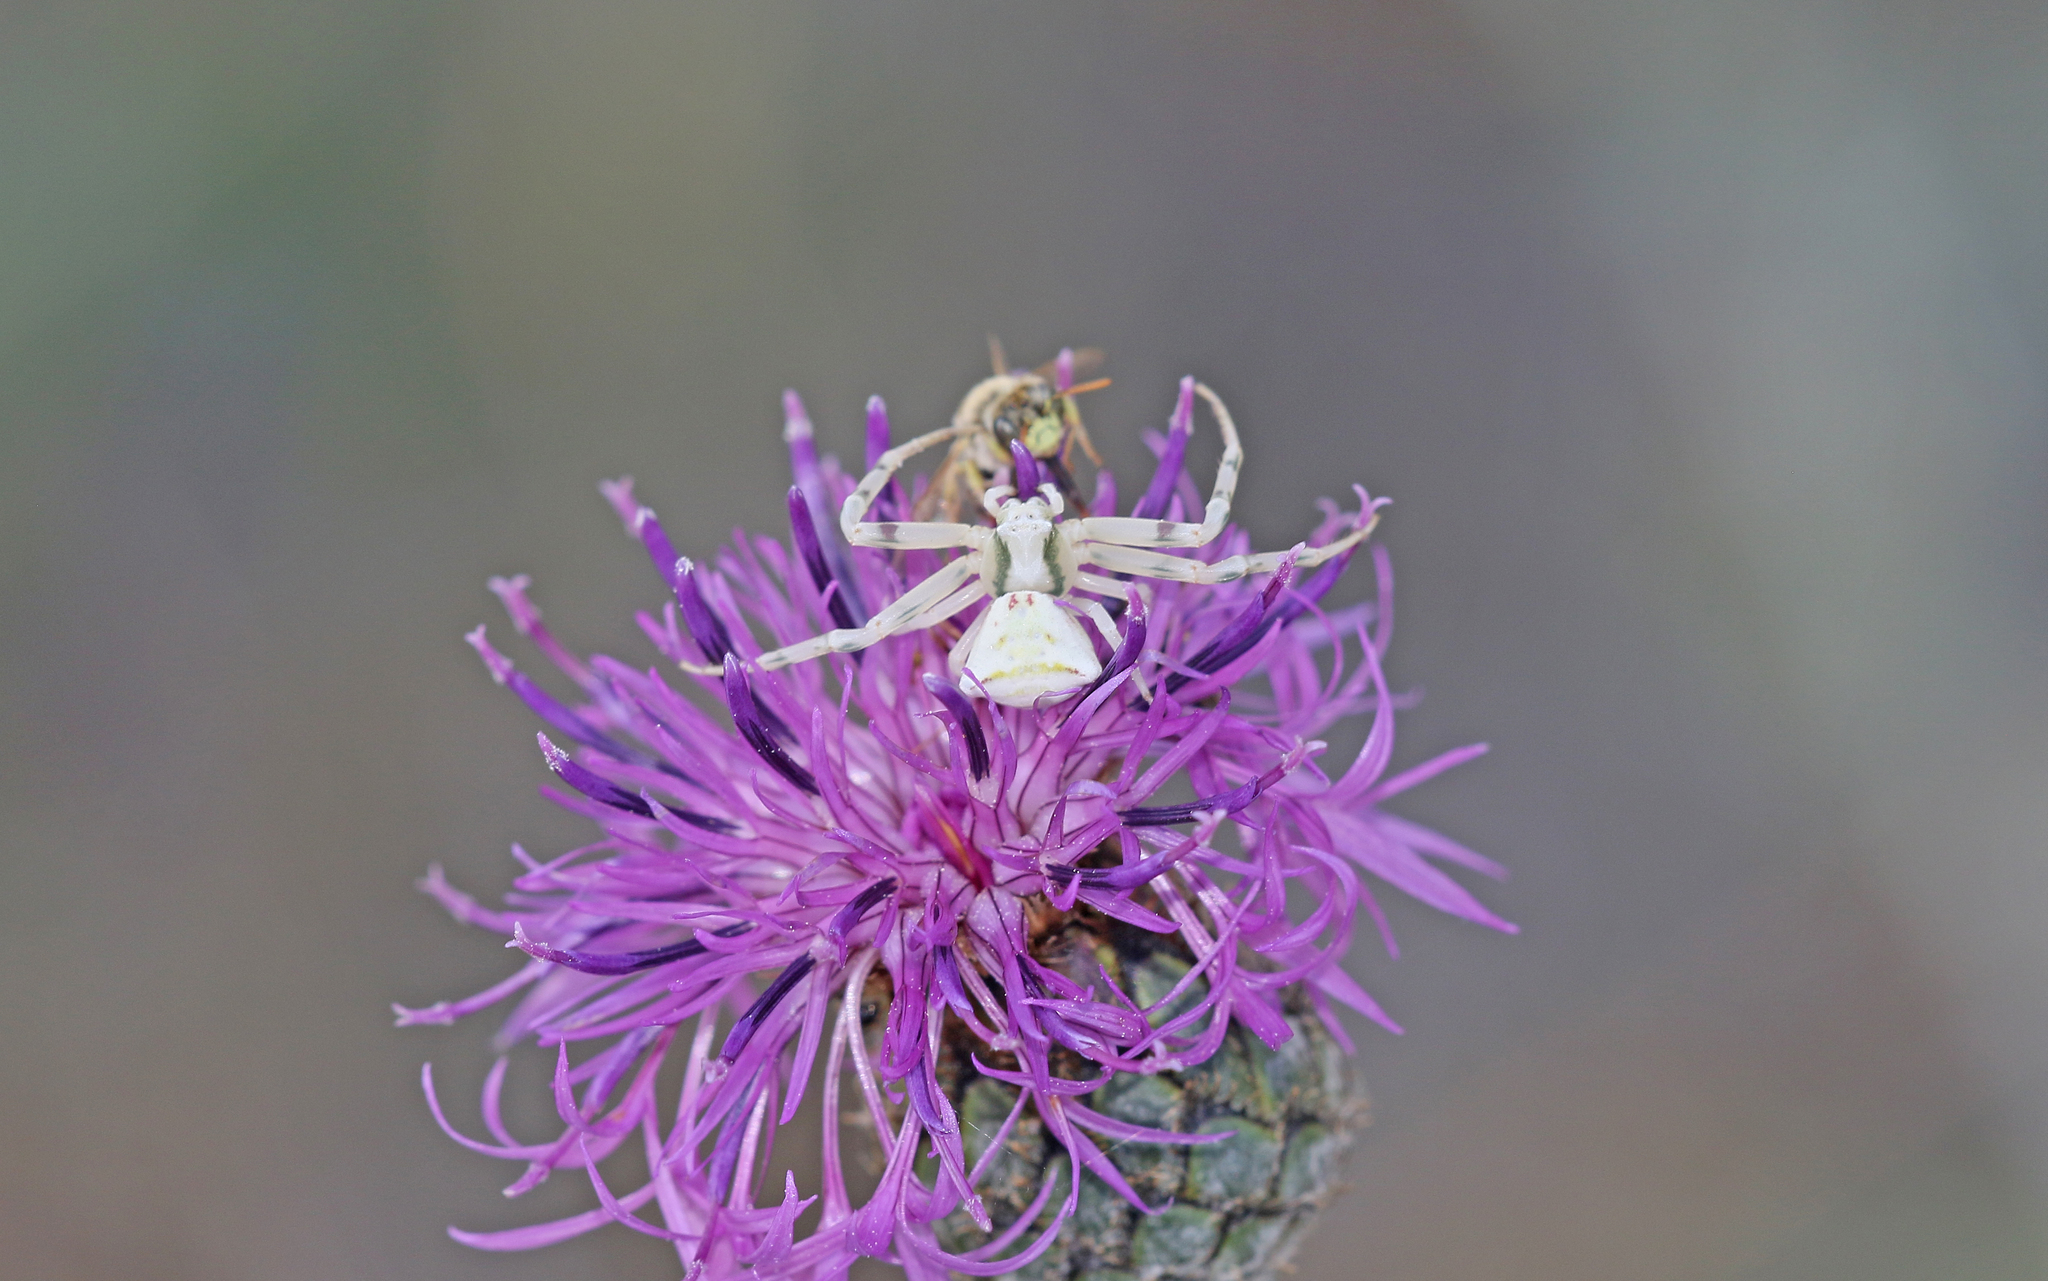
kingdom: Animalia
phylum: Arthropoda
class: Arachnida
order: Araneae
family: Thomisidae
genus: Thomisus
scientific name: Thomisus onustus
